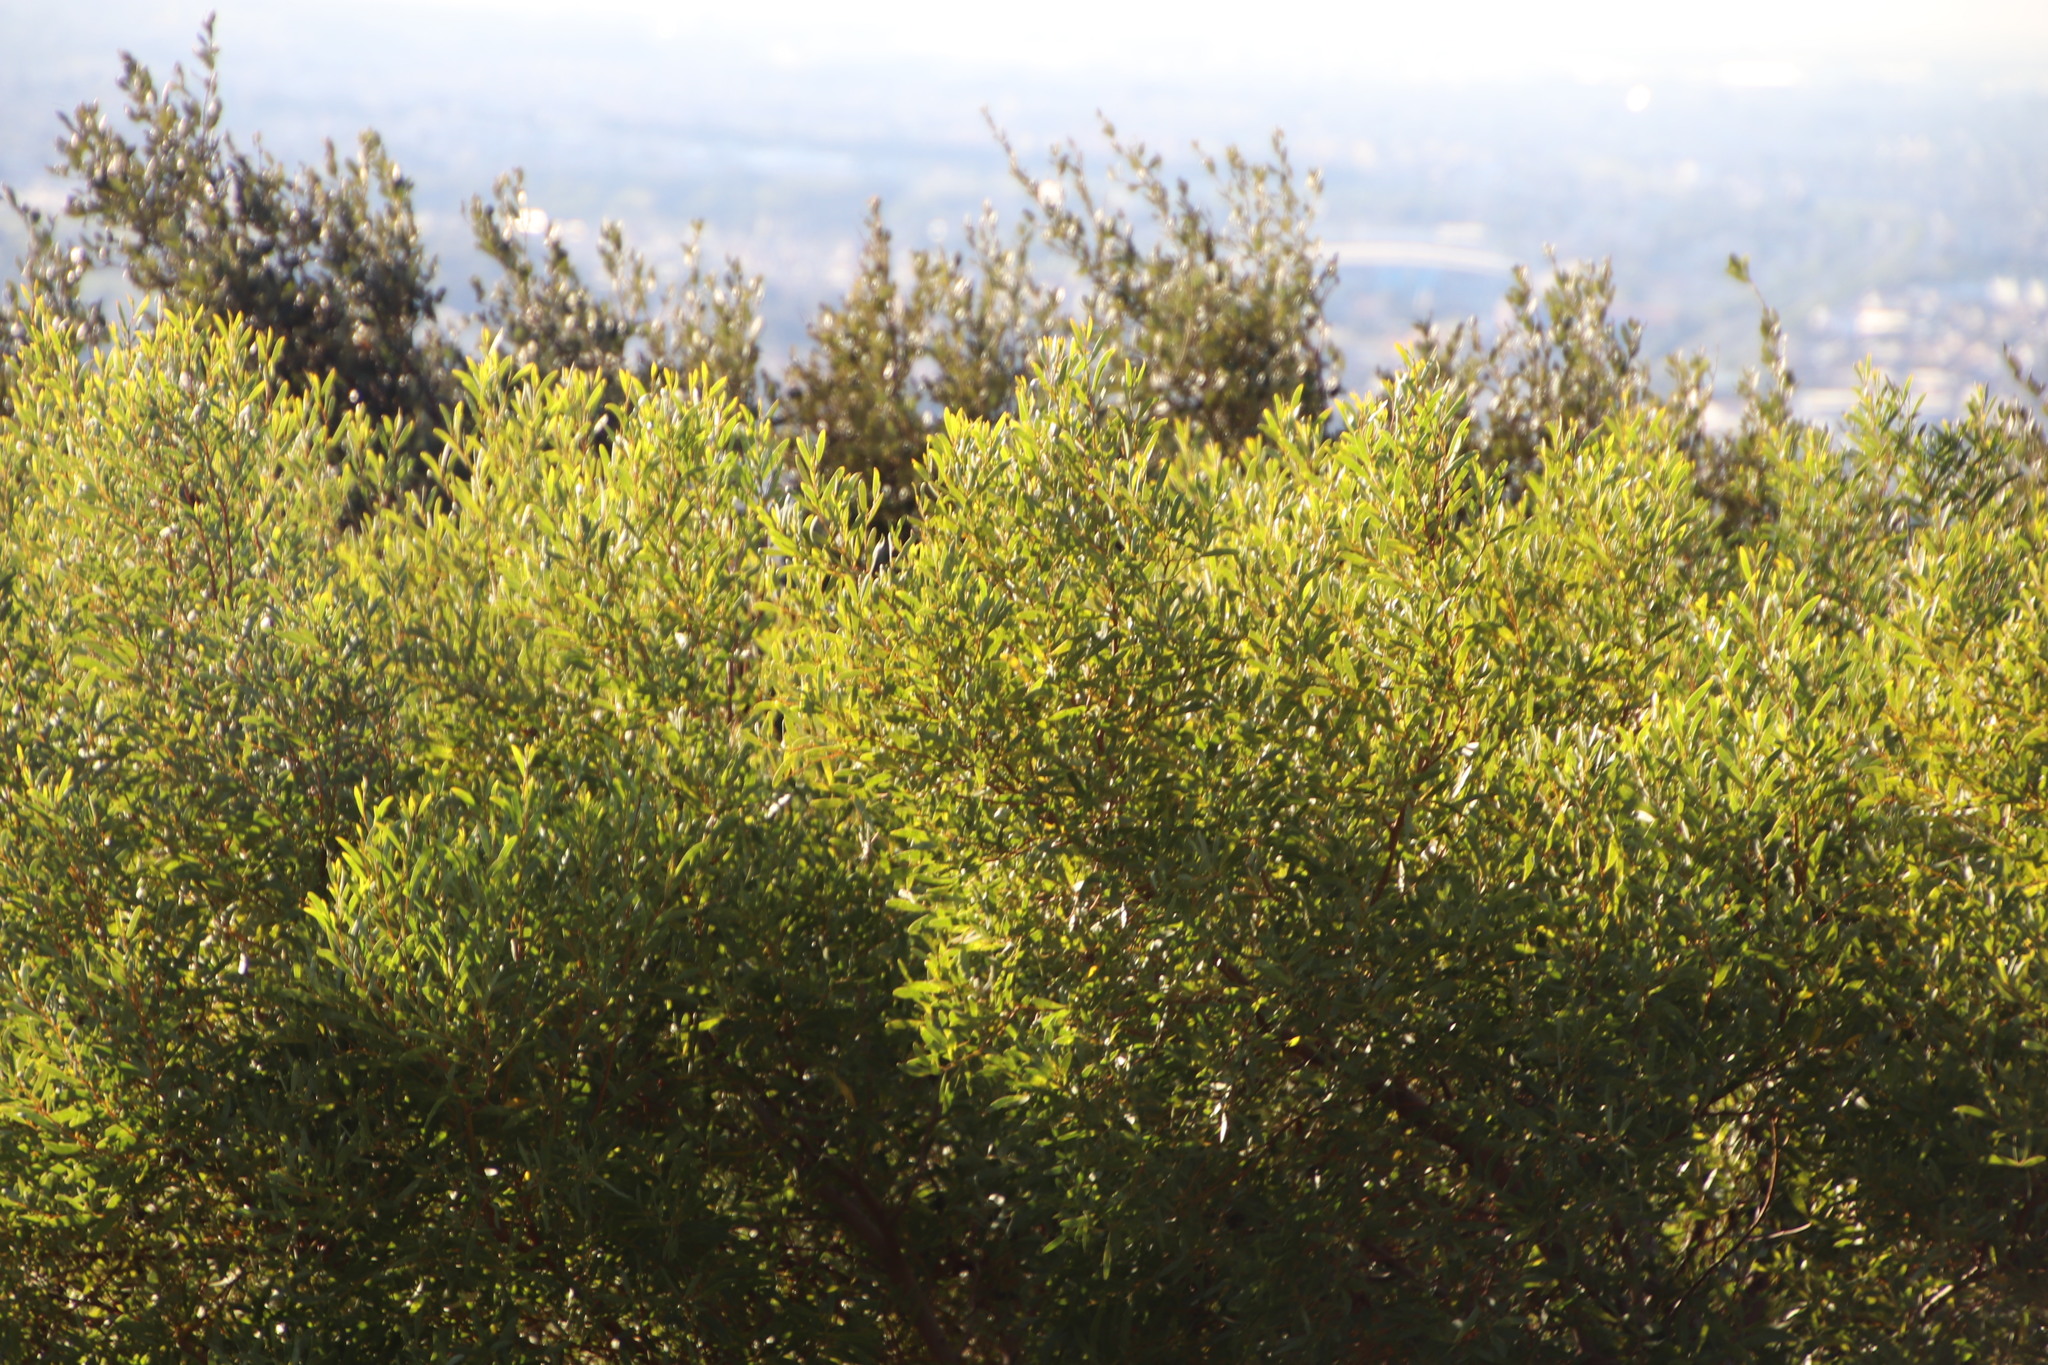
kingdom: Plantae
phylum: Tracheophyta
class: Magnoliopsida
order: Fabales
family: Fabaceae
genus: Acacia
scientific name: Acacia cyclops
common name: Coastal wattle
